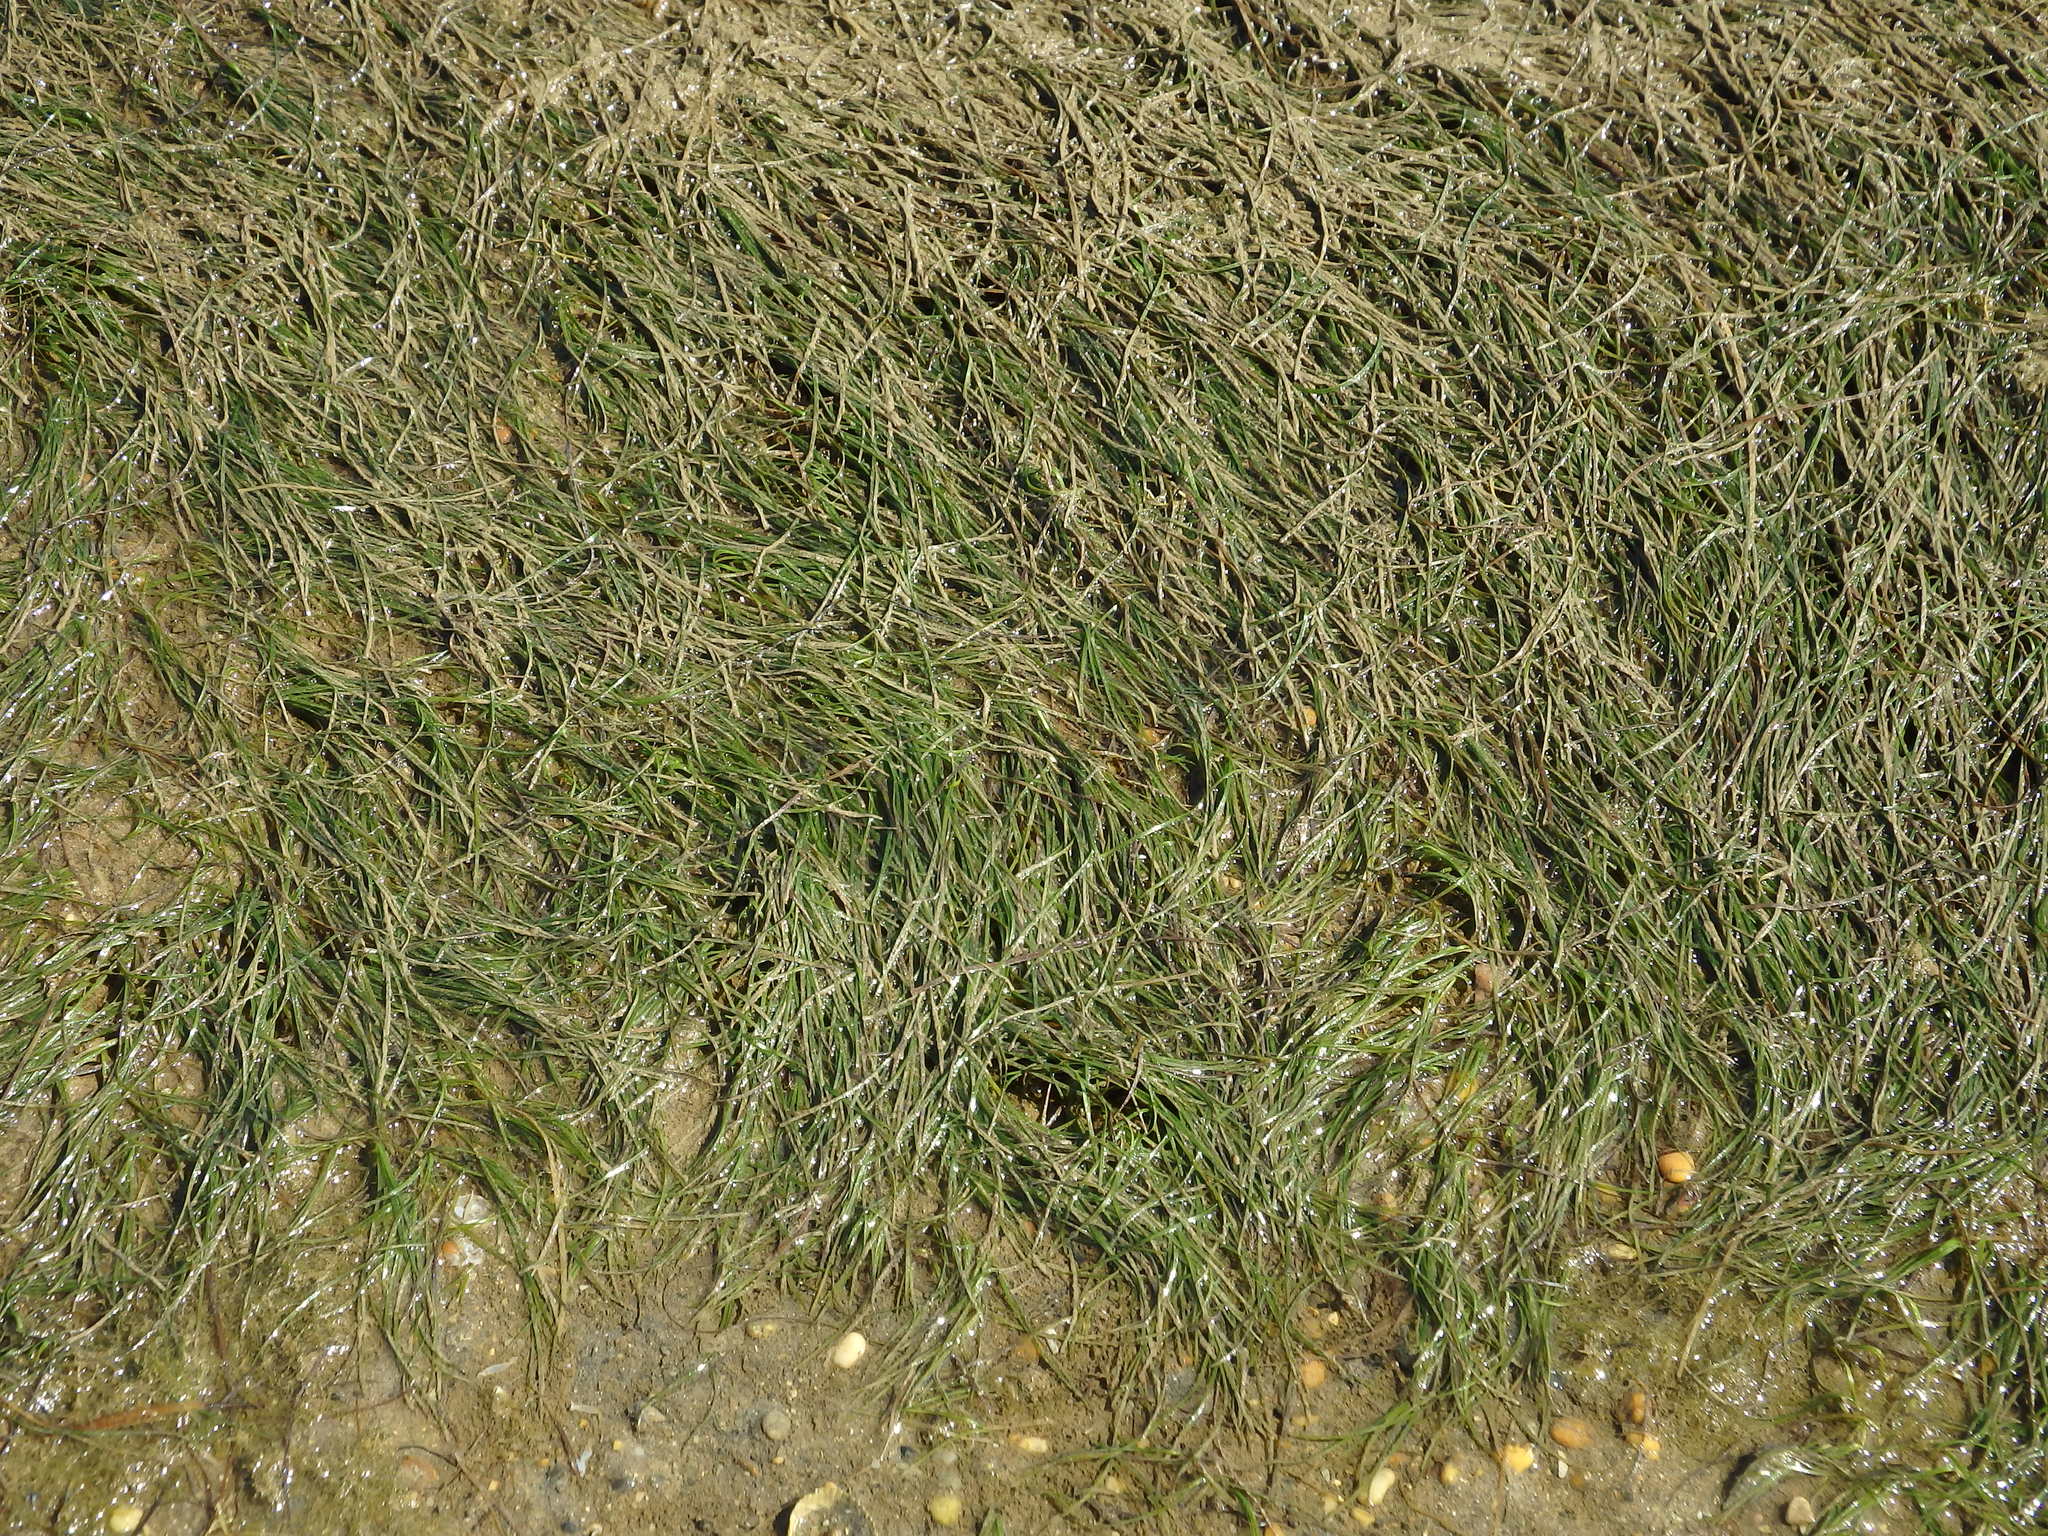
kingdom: Plantae
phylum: Tracheophyta
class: Liliopsida
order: Alismatales
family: Zosteraceae
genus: Zostera
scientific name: Zostera noltii
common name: Dwarf eelgrass
